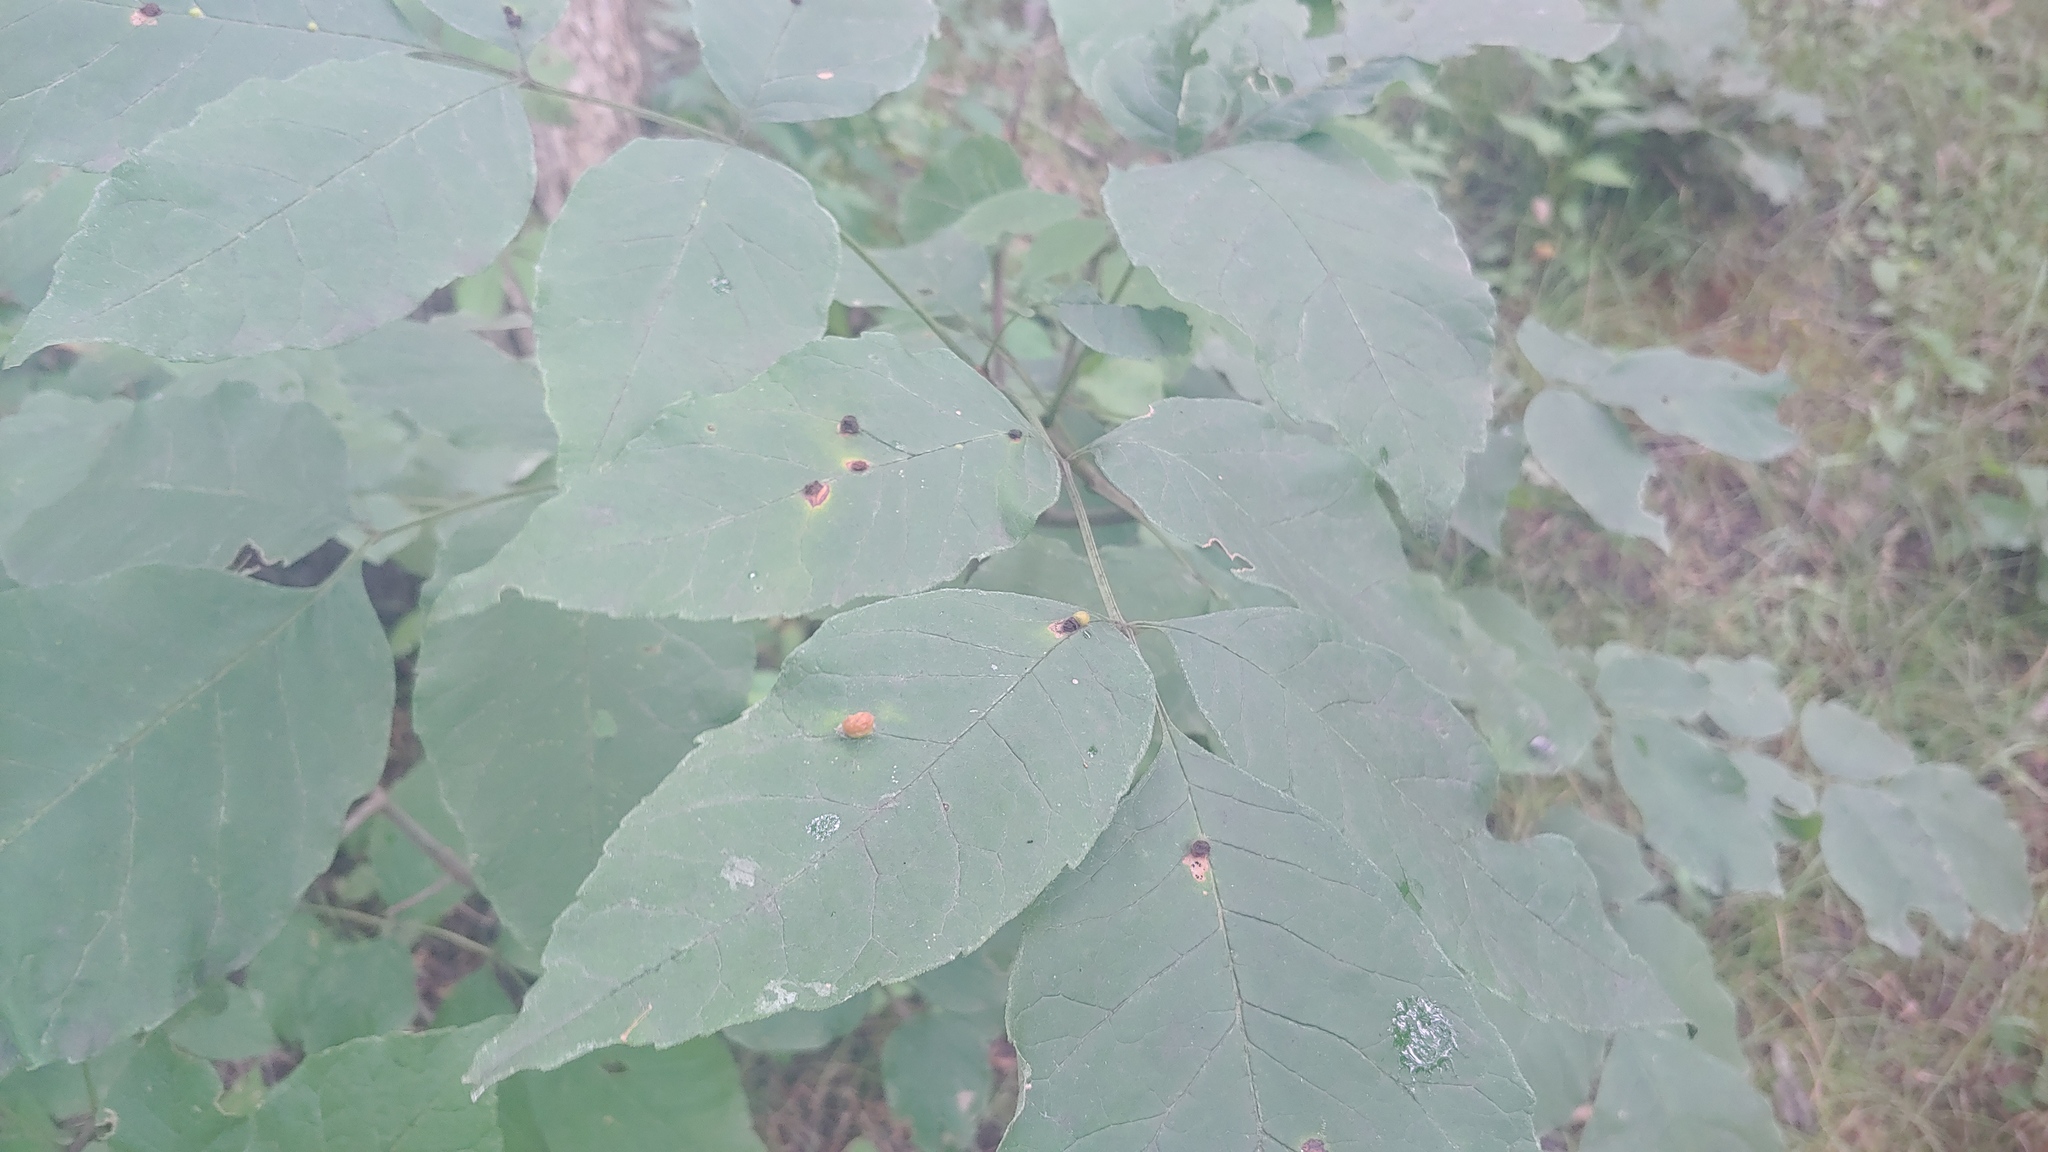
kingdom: Animalia
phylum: Arthropoda
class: Insecta
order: Diptera
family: Cecidomyiidae
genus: Dasineura
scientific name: Dasineura pellex
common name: Ash bullet gall midge
